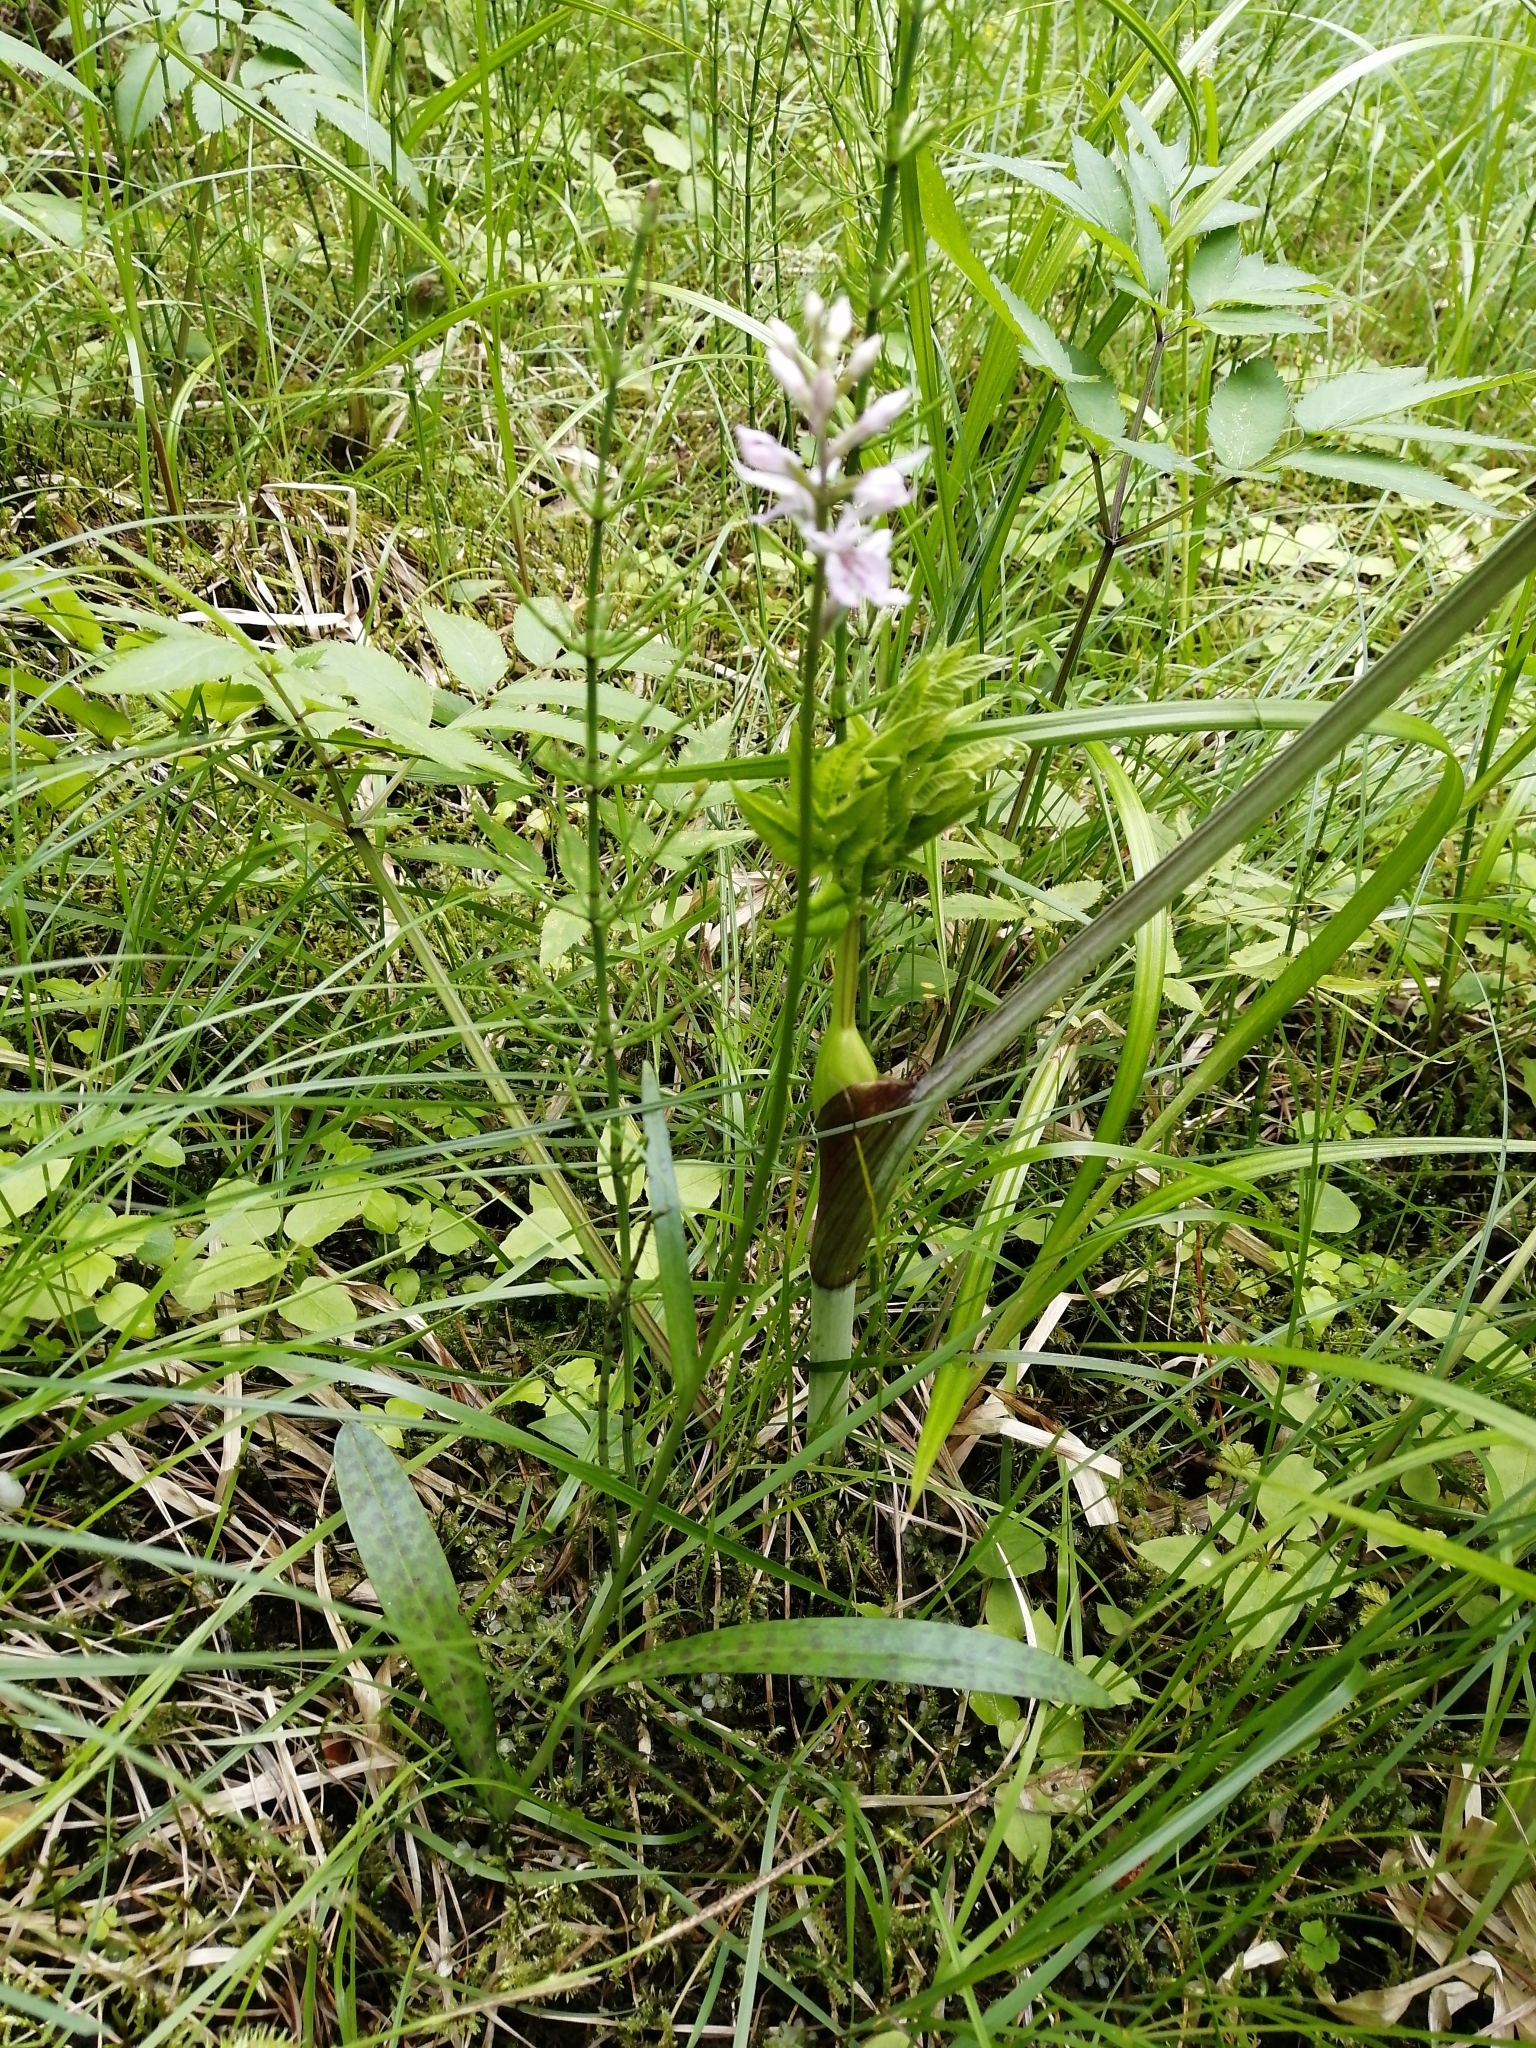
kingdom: Plantae
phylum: Tracheophyta
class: Liliopsida
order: Asparagales
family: Orchidaceae
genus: Dactylorhiza
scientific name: Dactylorhiza maculata
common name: Heath spotted-orchid
